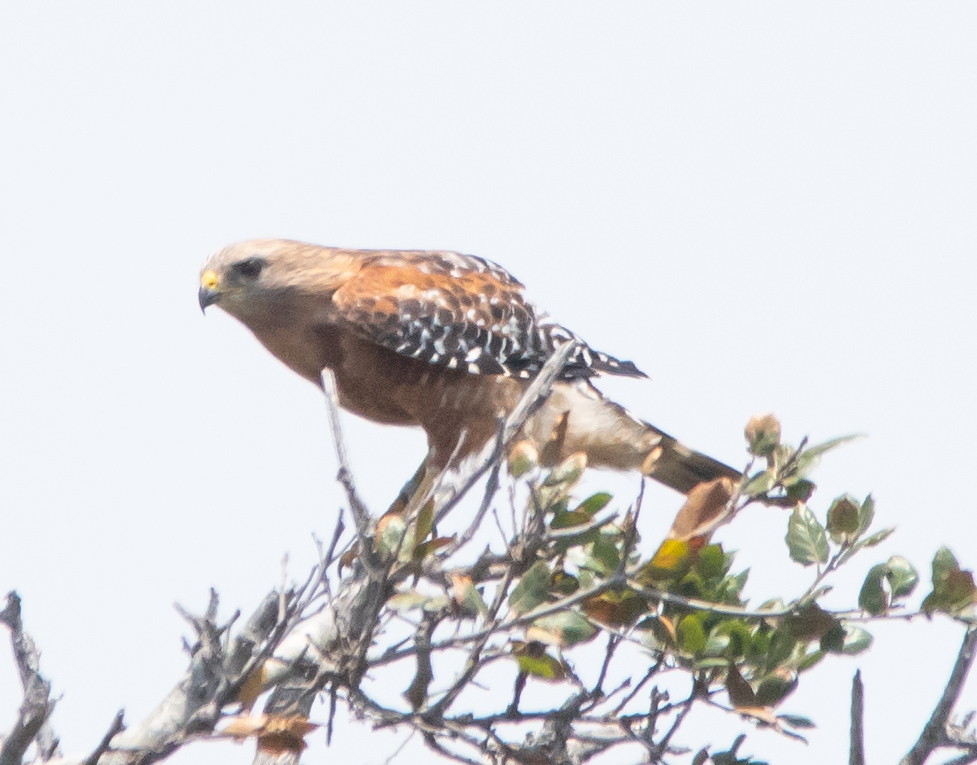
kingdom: Animalia
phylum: Chordata
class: Aves
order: Accipitriformes
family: Accipitridae
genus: Buteo
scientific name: Buteo lineatus
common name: Red-shouldered hawk
